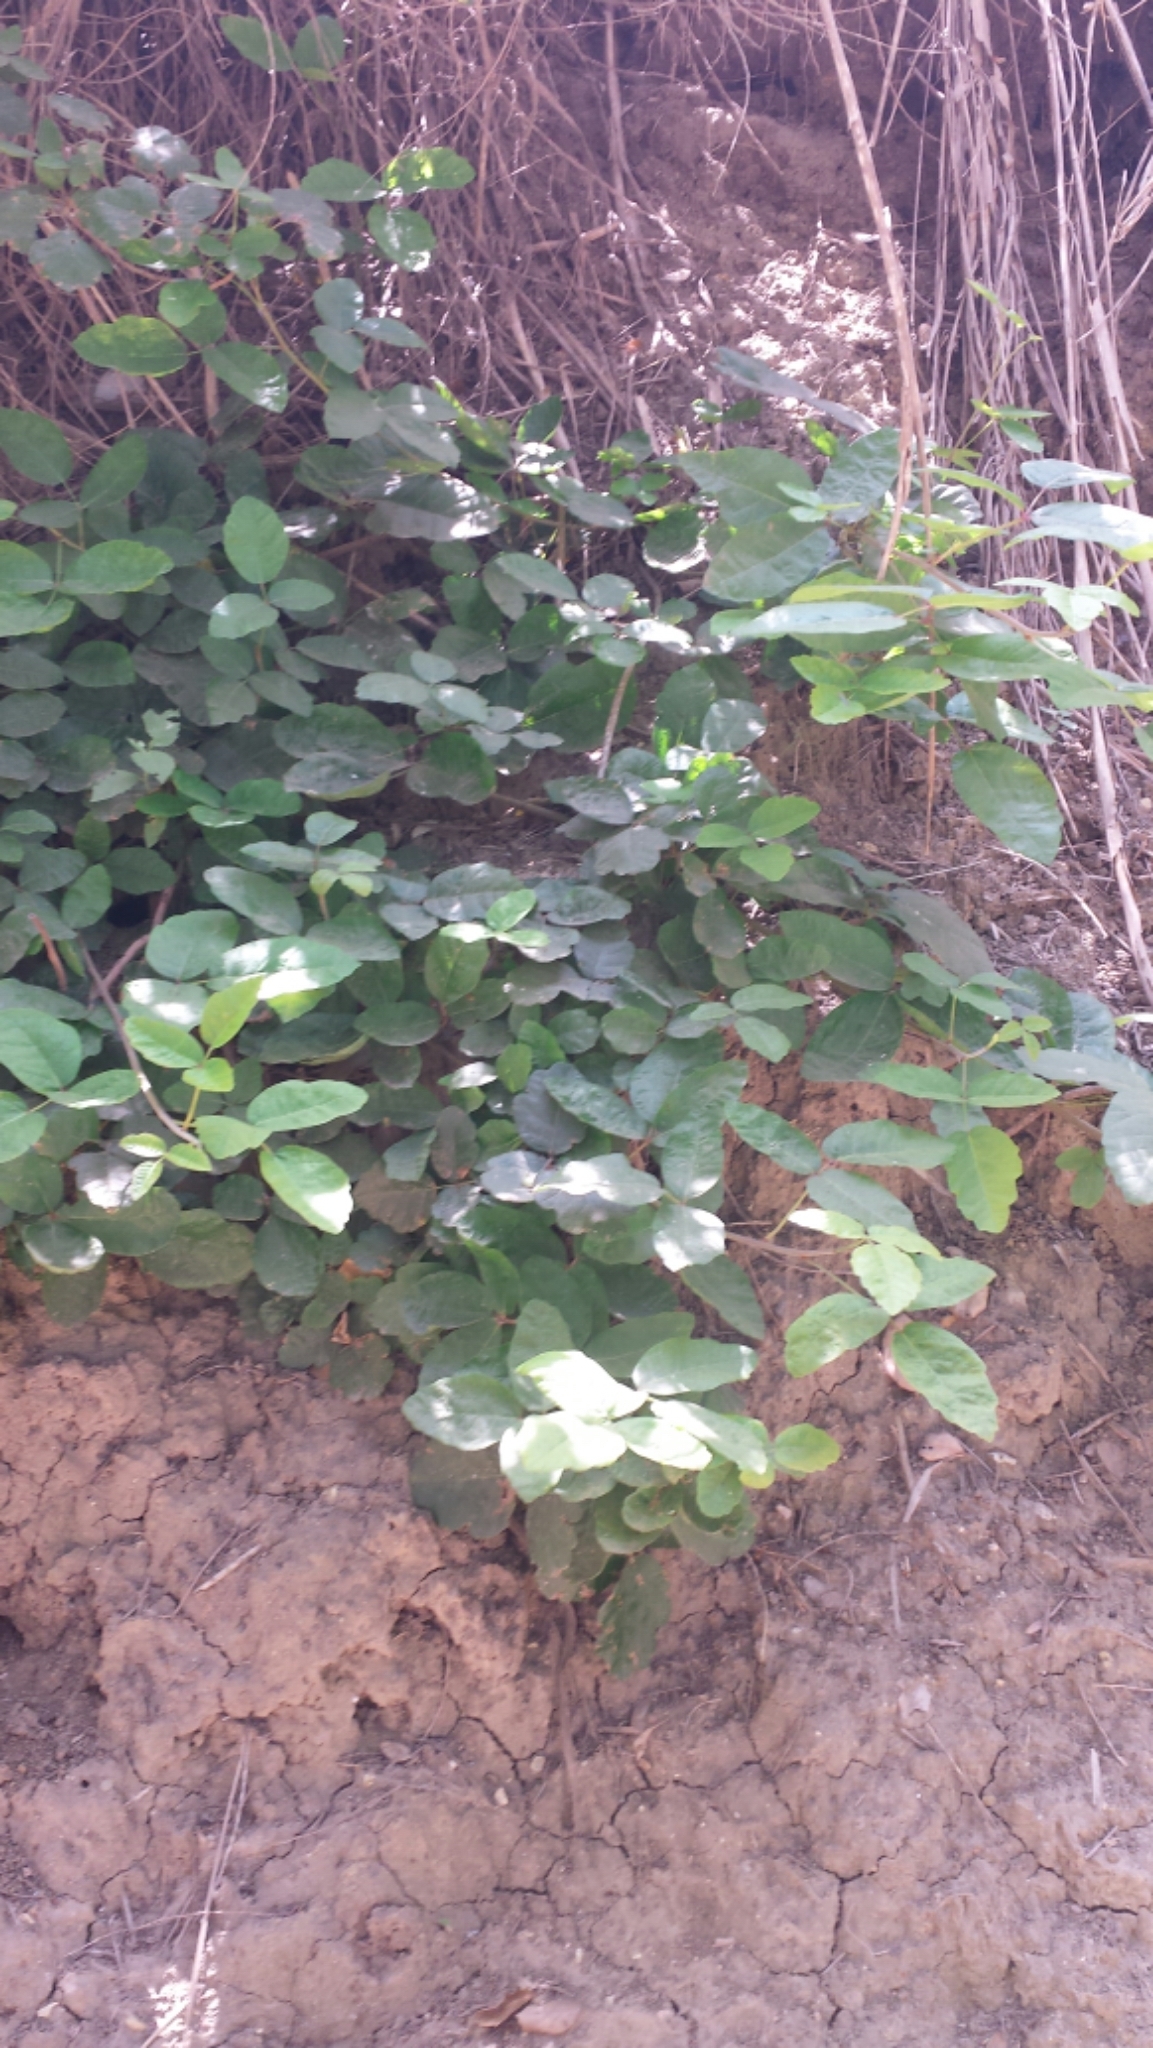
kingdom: Plantae
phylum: Tracheophyta
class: Magnoliopsida
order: Sapindales
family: Anacardiaceae
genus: Toxicodendron
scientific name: Toxicodendron diversilobum
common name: Pacific poison-oak
